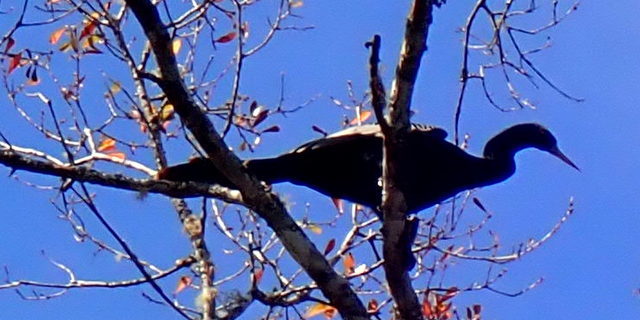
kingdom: Animalia
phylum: Chordata
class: Aves
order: Suliformes
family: Anhingidae
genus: Anhinga
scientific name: Anhinga anhinga
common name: Anhinga
